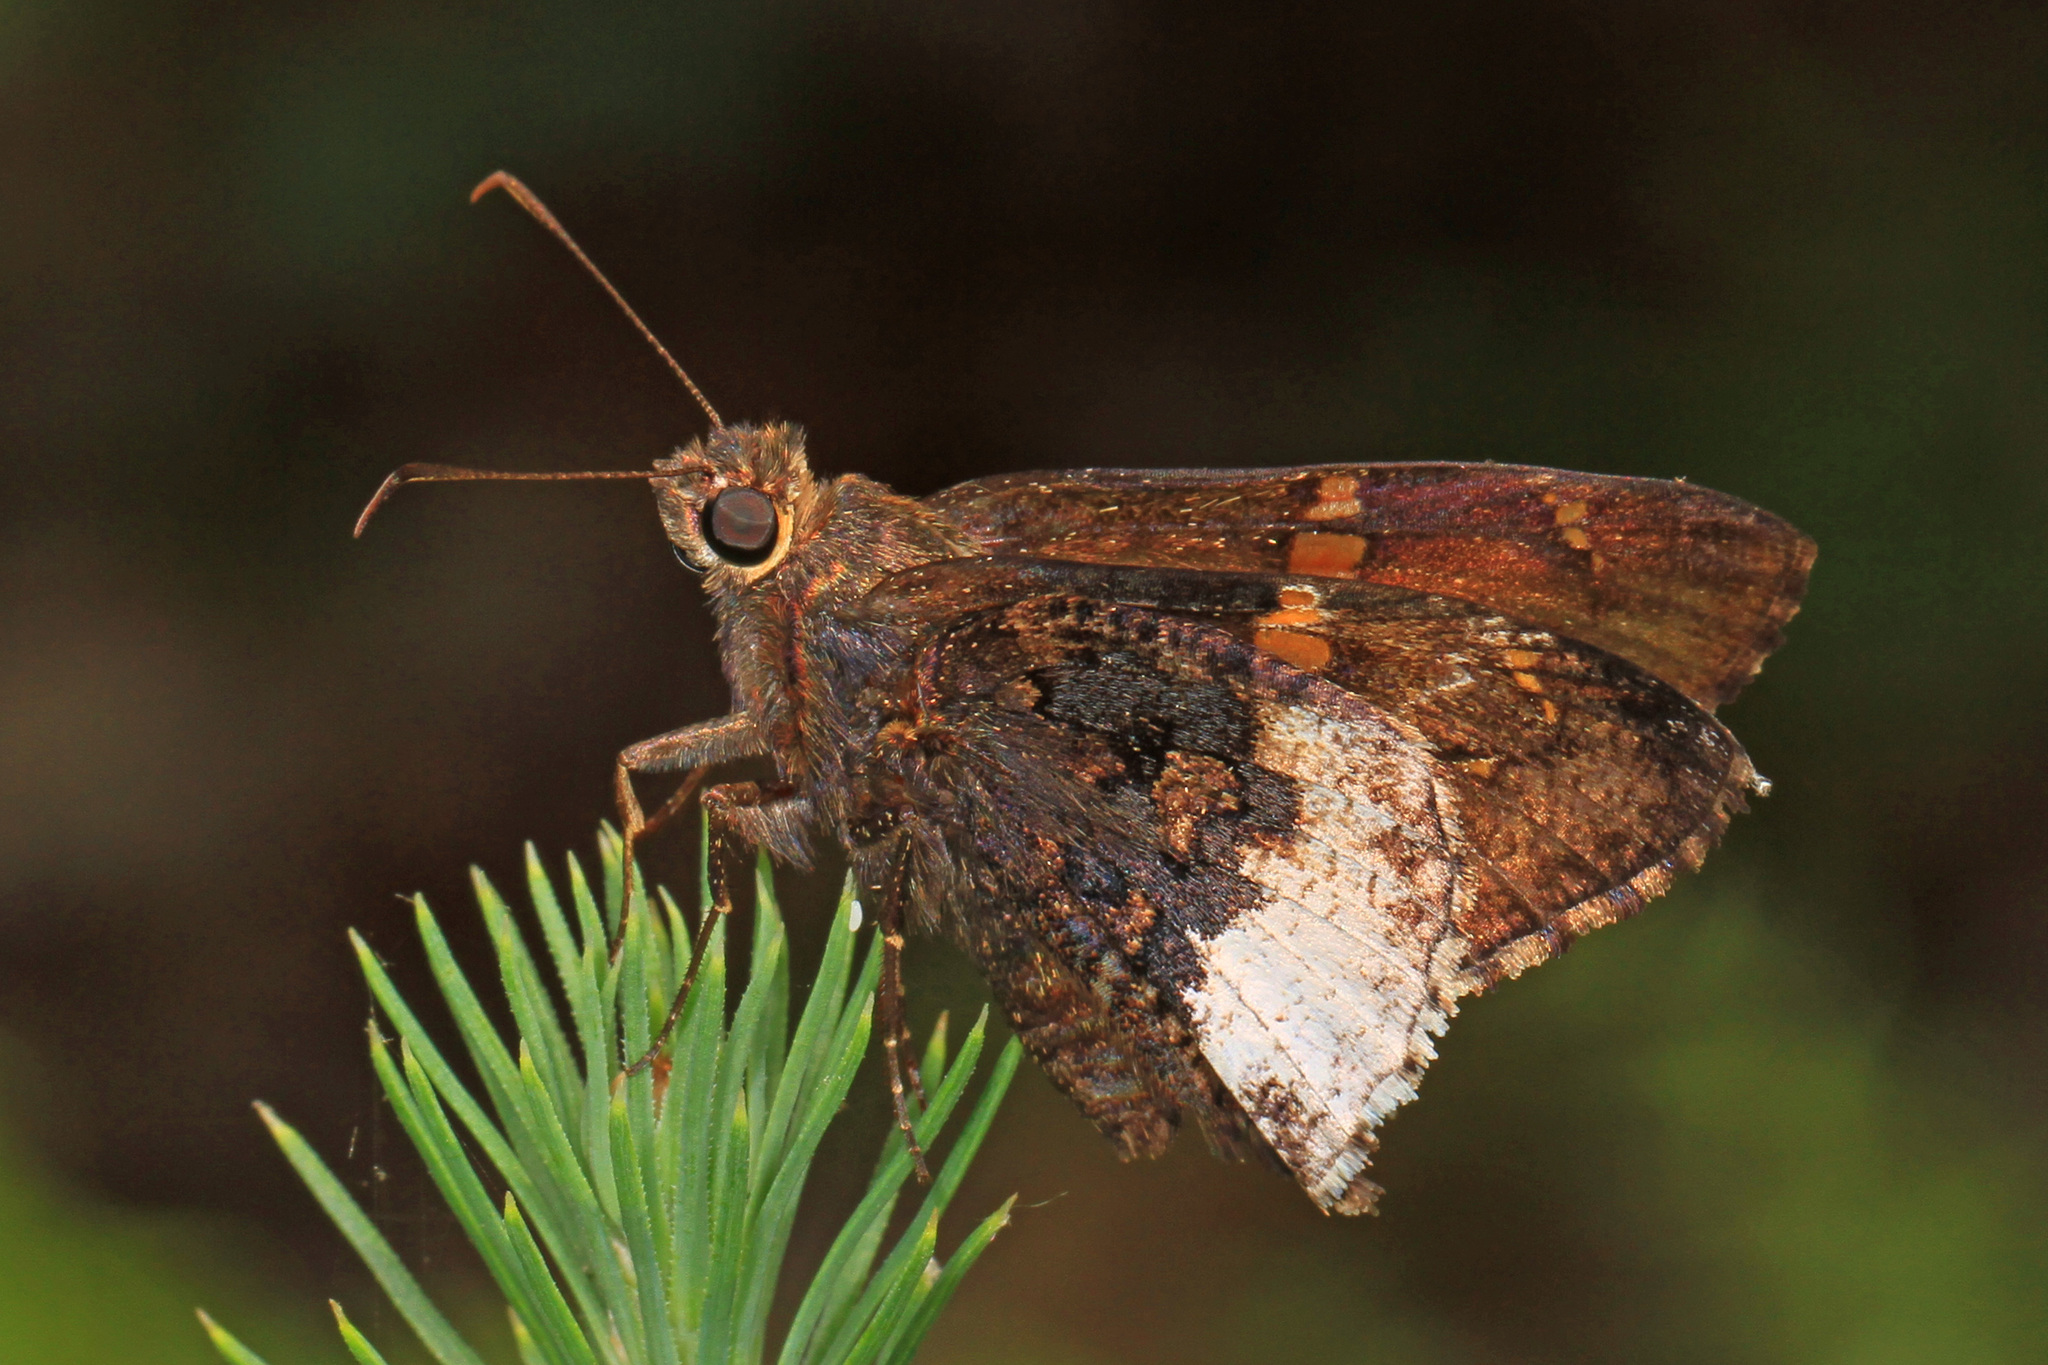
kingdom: Animalia
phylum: Arthropoda
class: Insecta
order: Lepidoptera
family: Hesperiidae
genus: Thorybes
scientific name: Thorybes lyciades
